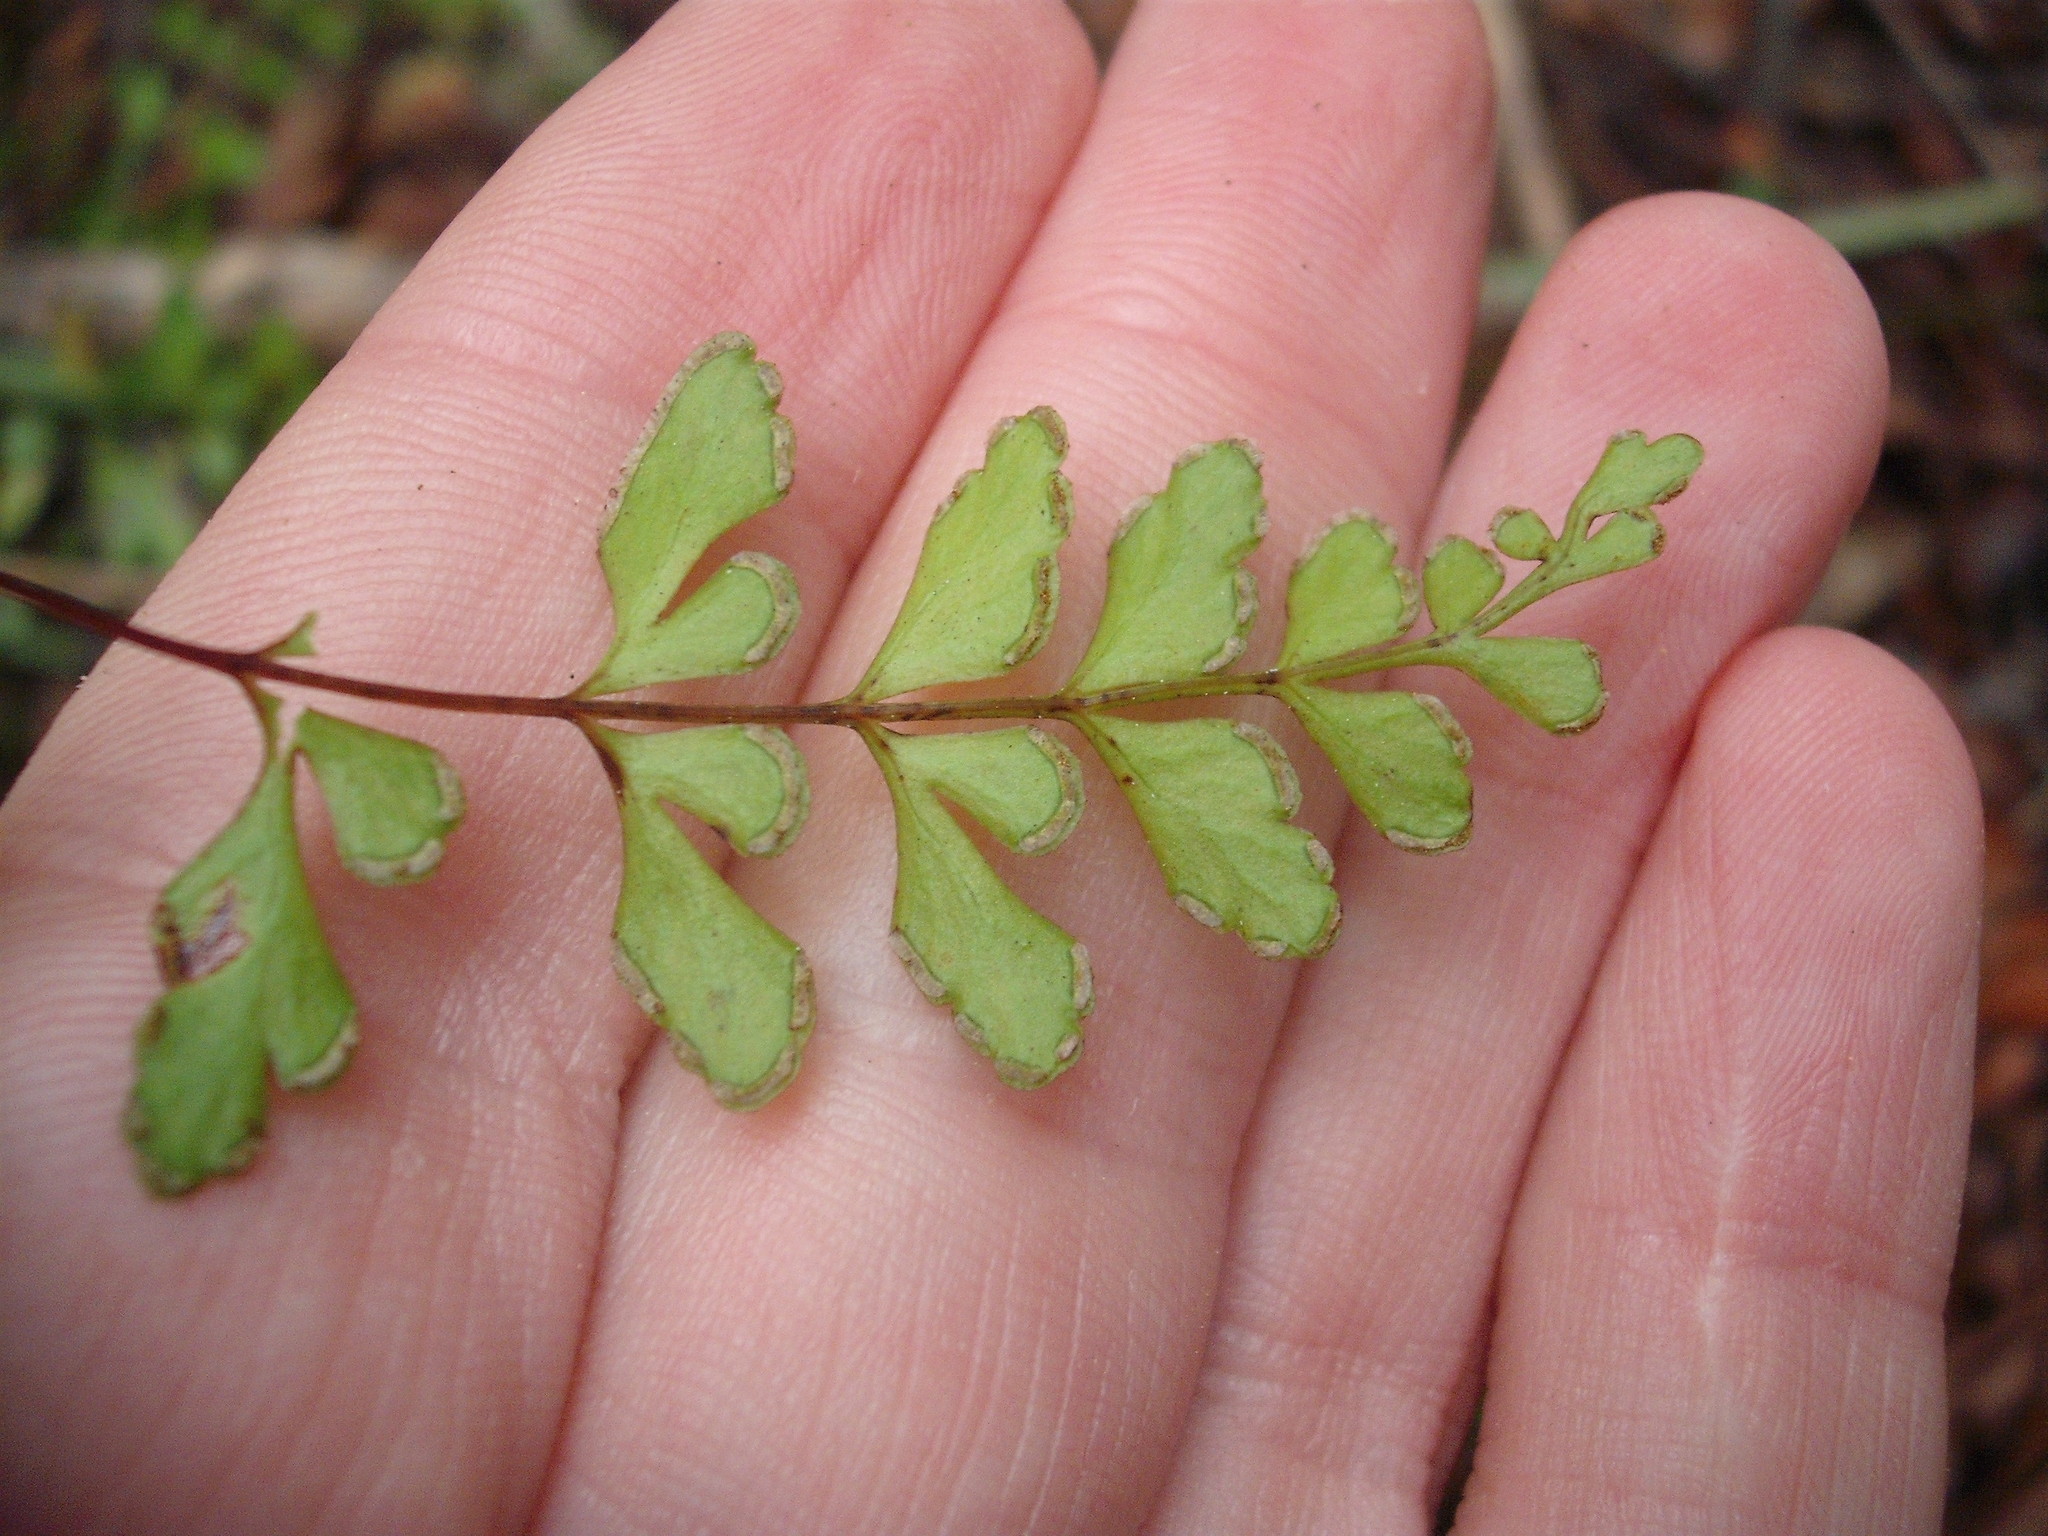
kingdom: Plantae
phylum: Tracheophyta
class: Polypodiopsida
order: Polypodiales
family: Lindsaeaceae
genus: Lindsaea
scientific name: Lindsaea trichomanoides
